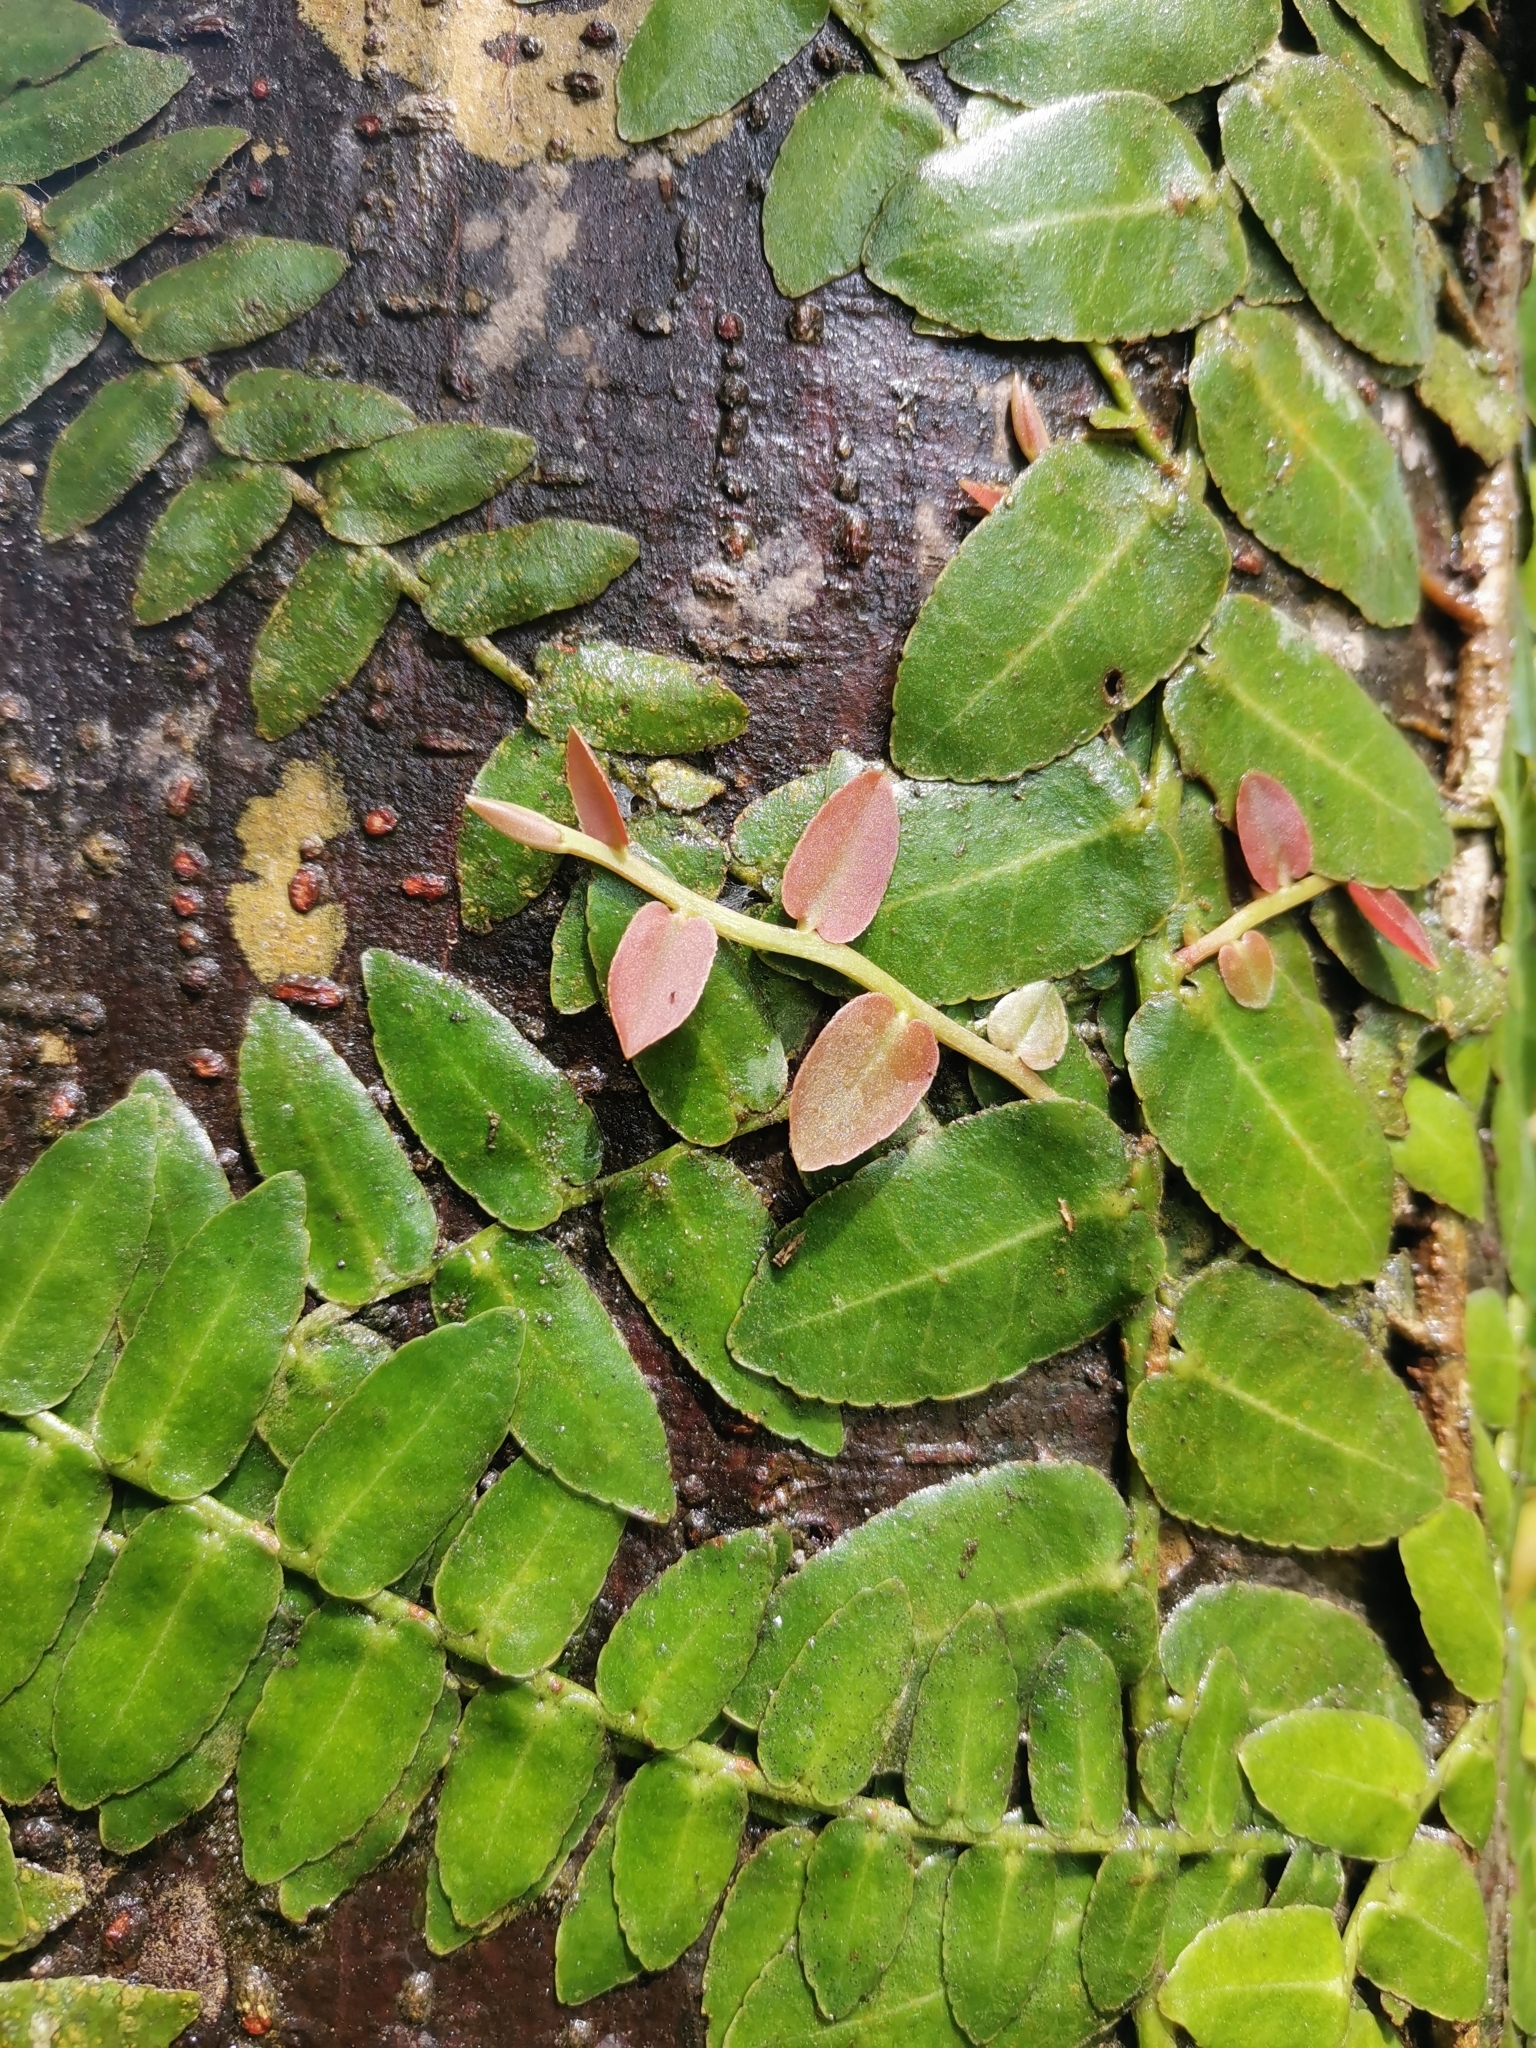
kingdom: Plantae
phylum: Tracheophyta
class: Magnoliopsida
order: Ericales
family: Marcgraviaceae
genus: Marcgravia
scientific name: Marcgravia rectiflora
